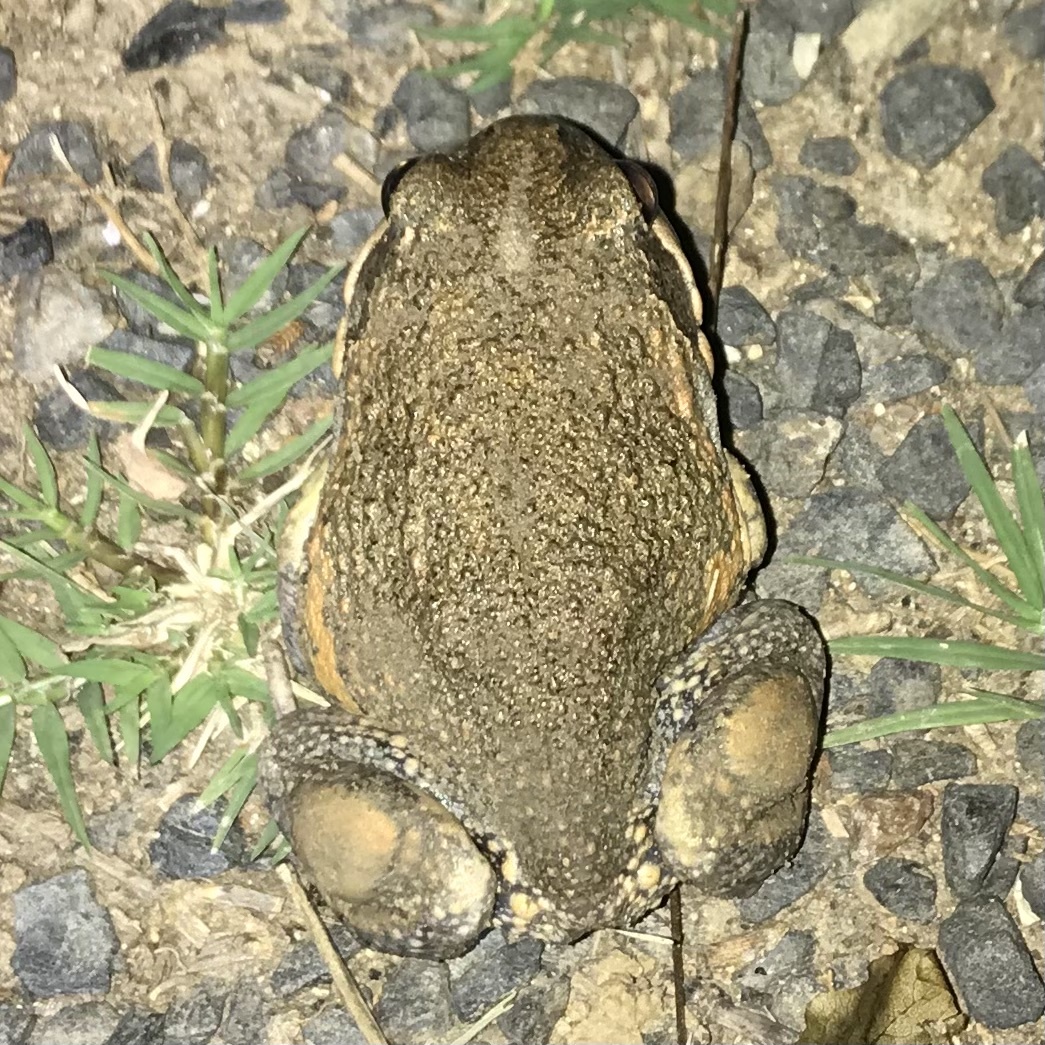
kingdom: Animalia
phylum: Chordata
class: Amphibia
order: Anura
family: Limnodynastidae
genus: Limnodynastes
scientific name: Limnodynastes dumerilii
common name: Banjo frog
